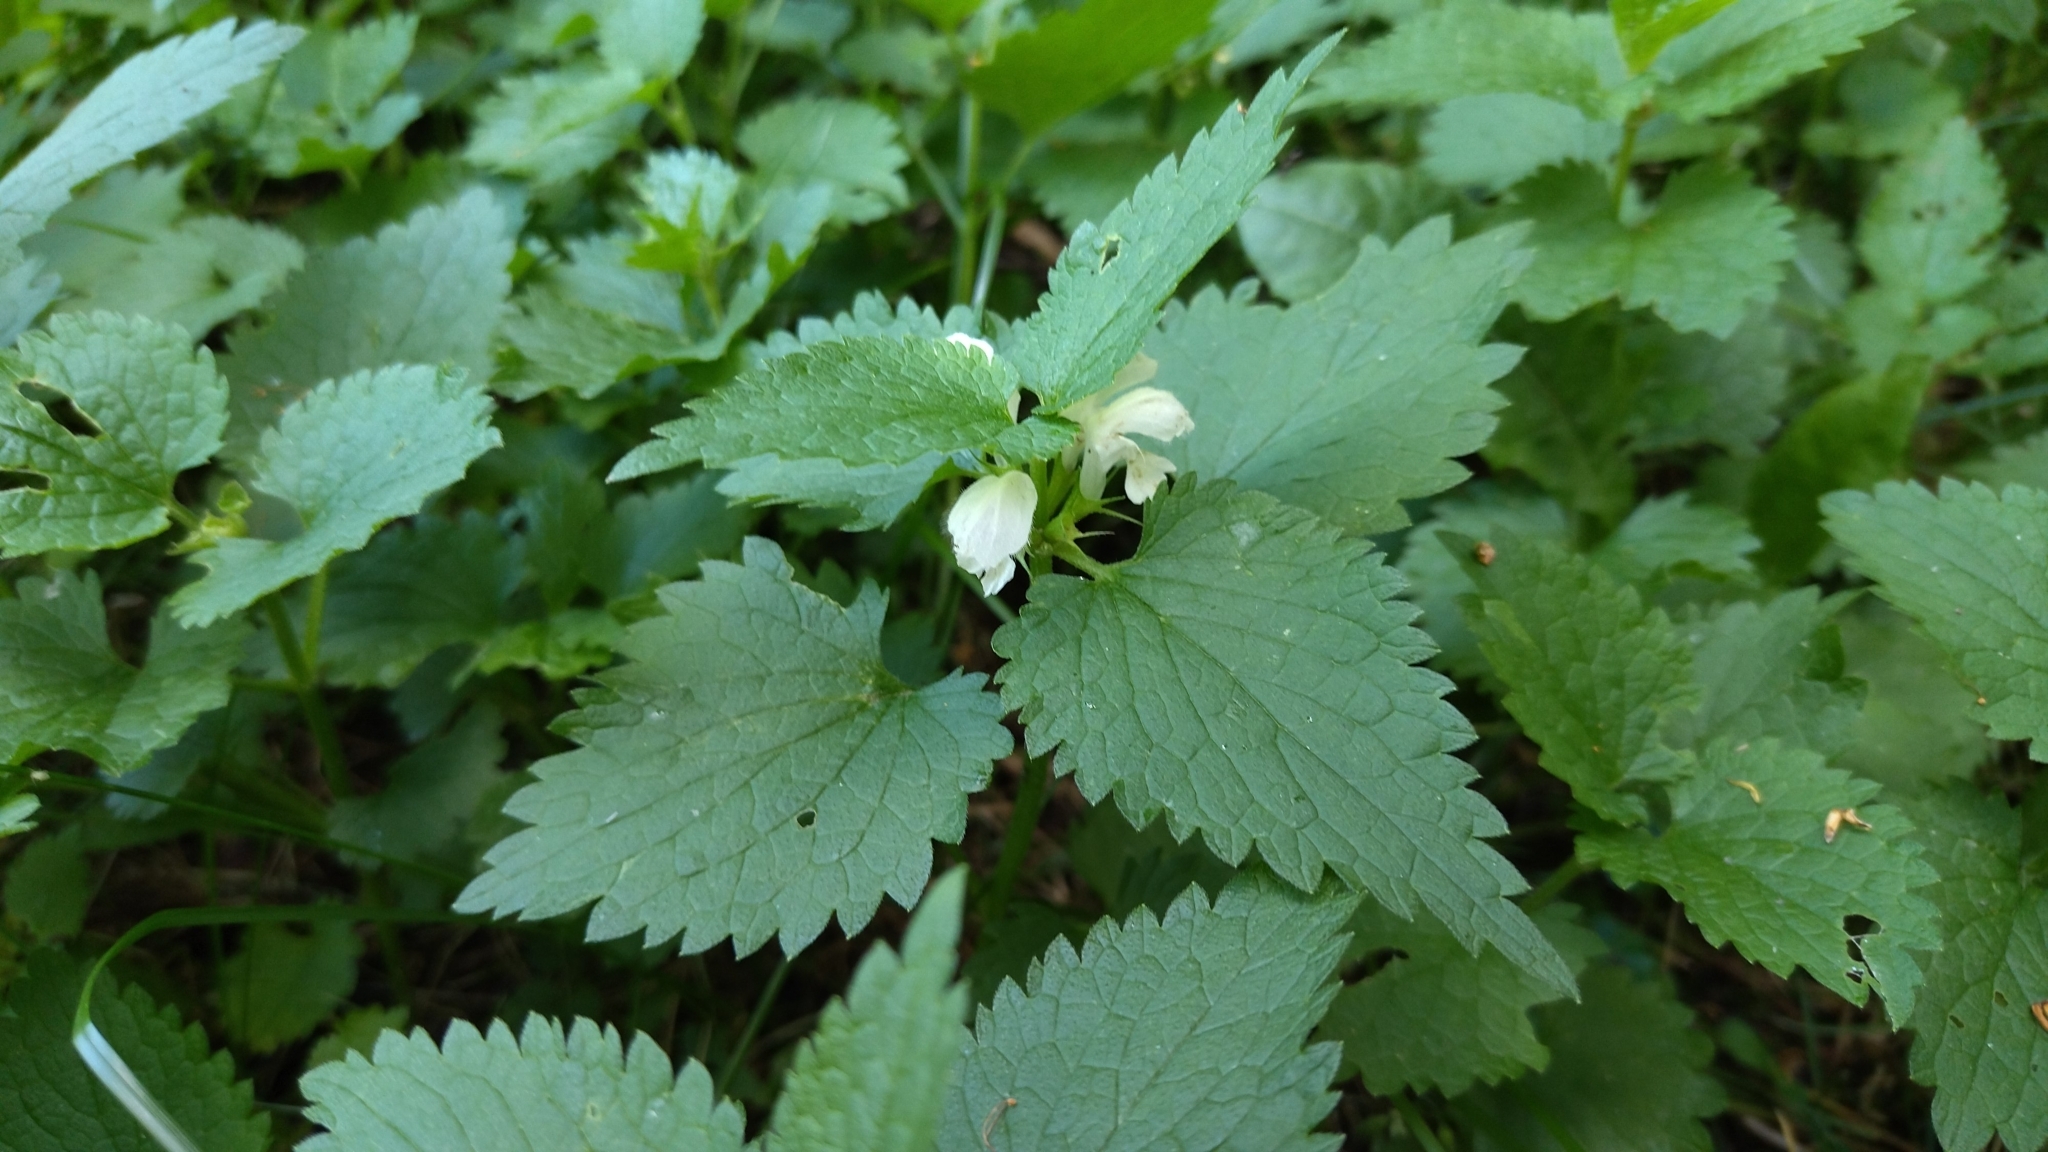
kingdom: Plantae
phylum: Tracheophyta
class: Magnoliopsida
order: Lamiales
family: Lamiaceae
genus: Lamium
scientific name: Lamium album
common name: White dead-nettle
